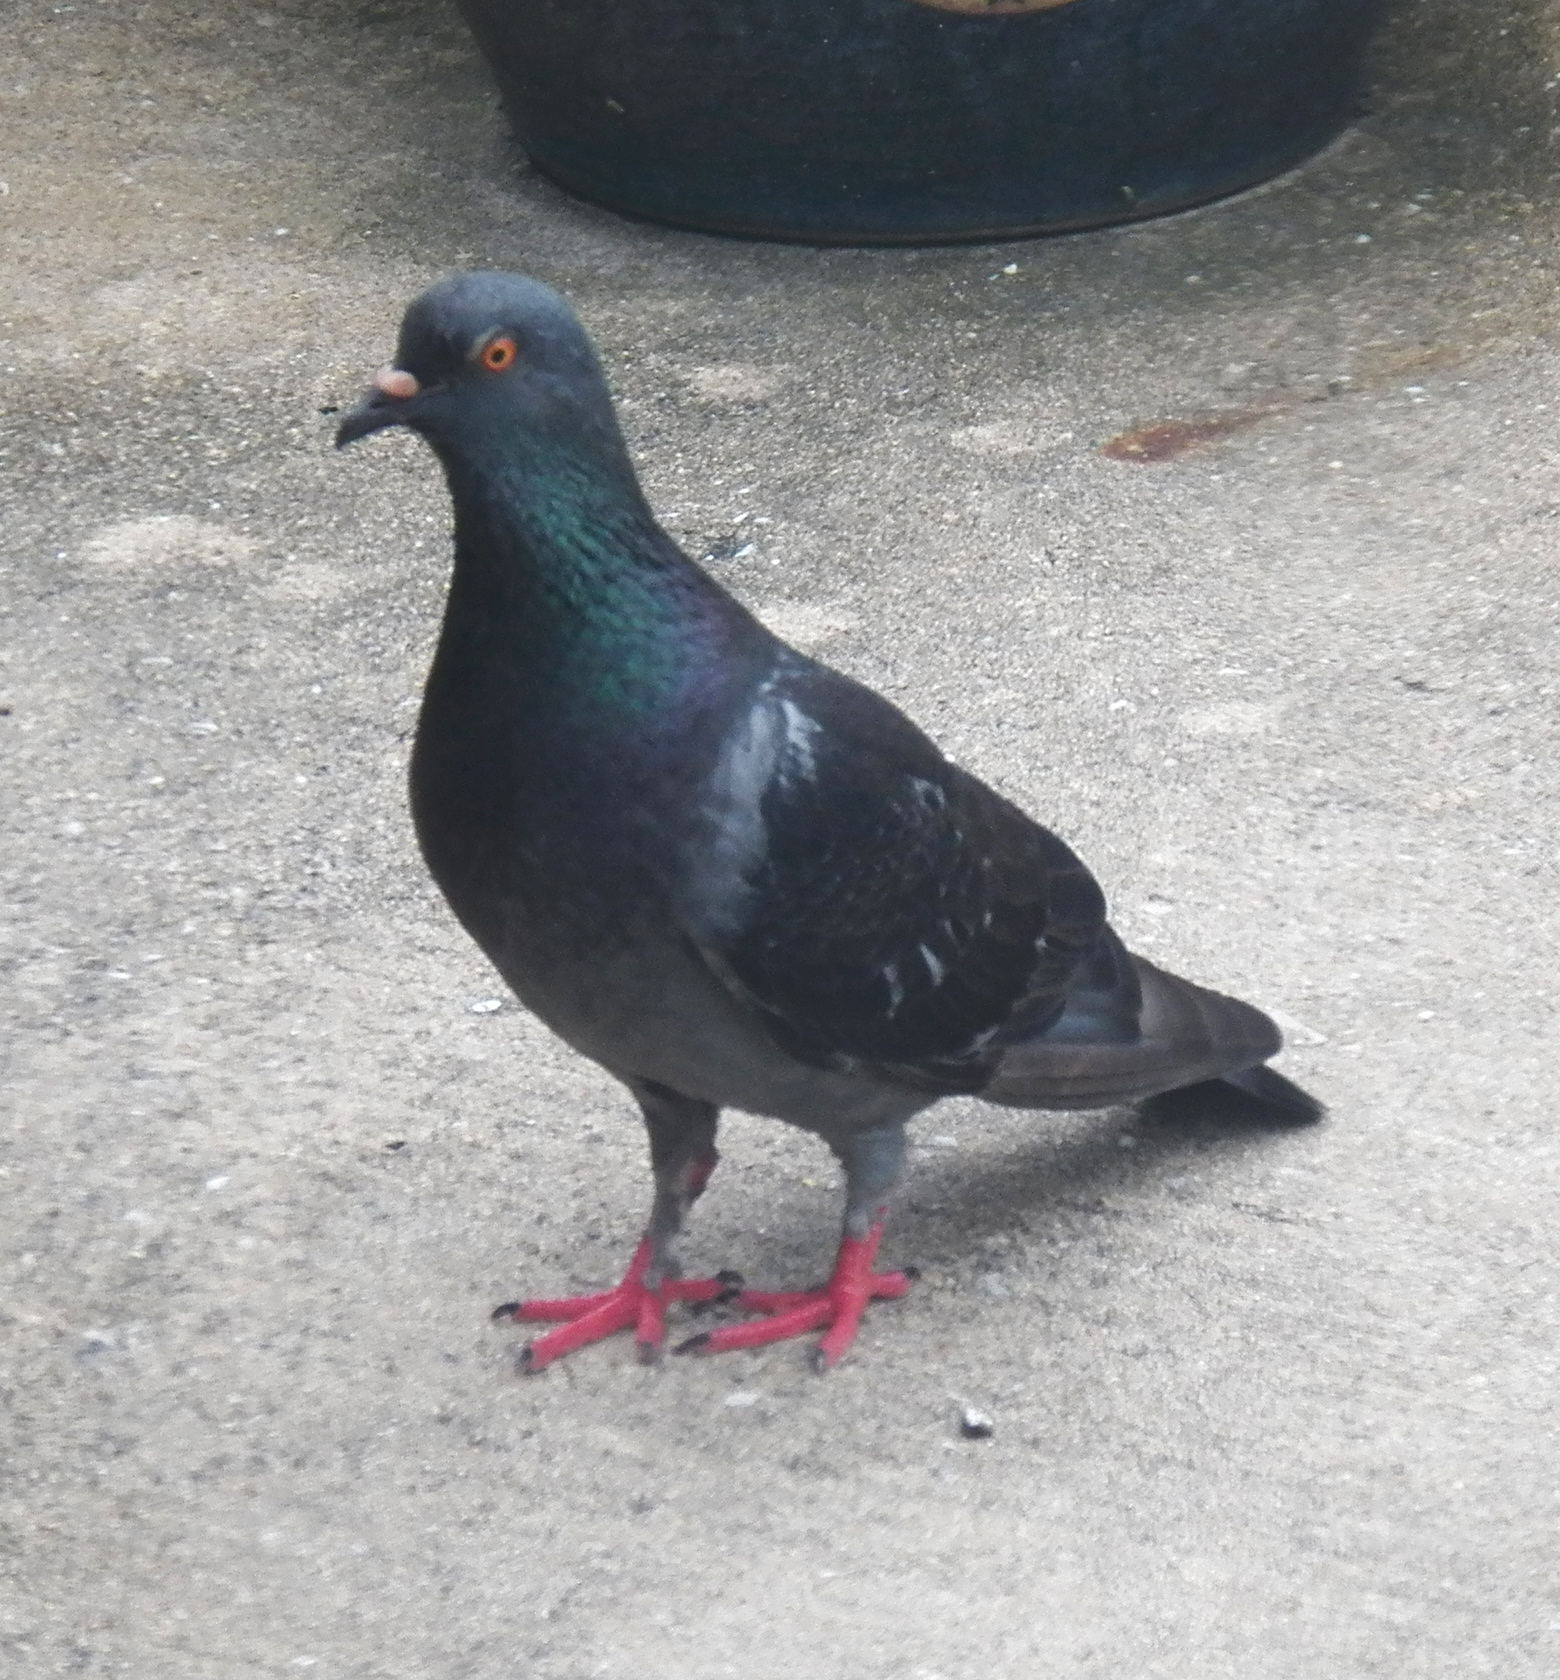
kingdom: Animalia
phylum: Chordata
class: Aves
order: Columbiformes
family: Columbidae
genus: Columba
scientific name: Columba livia
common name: Rock pigeon
